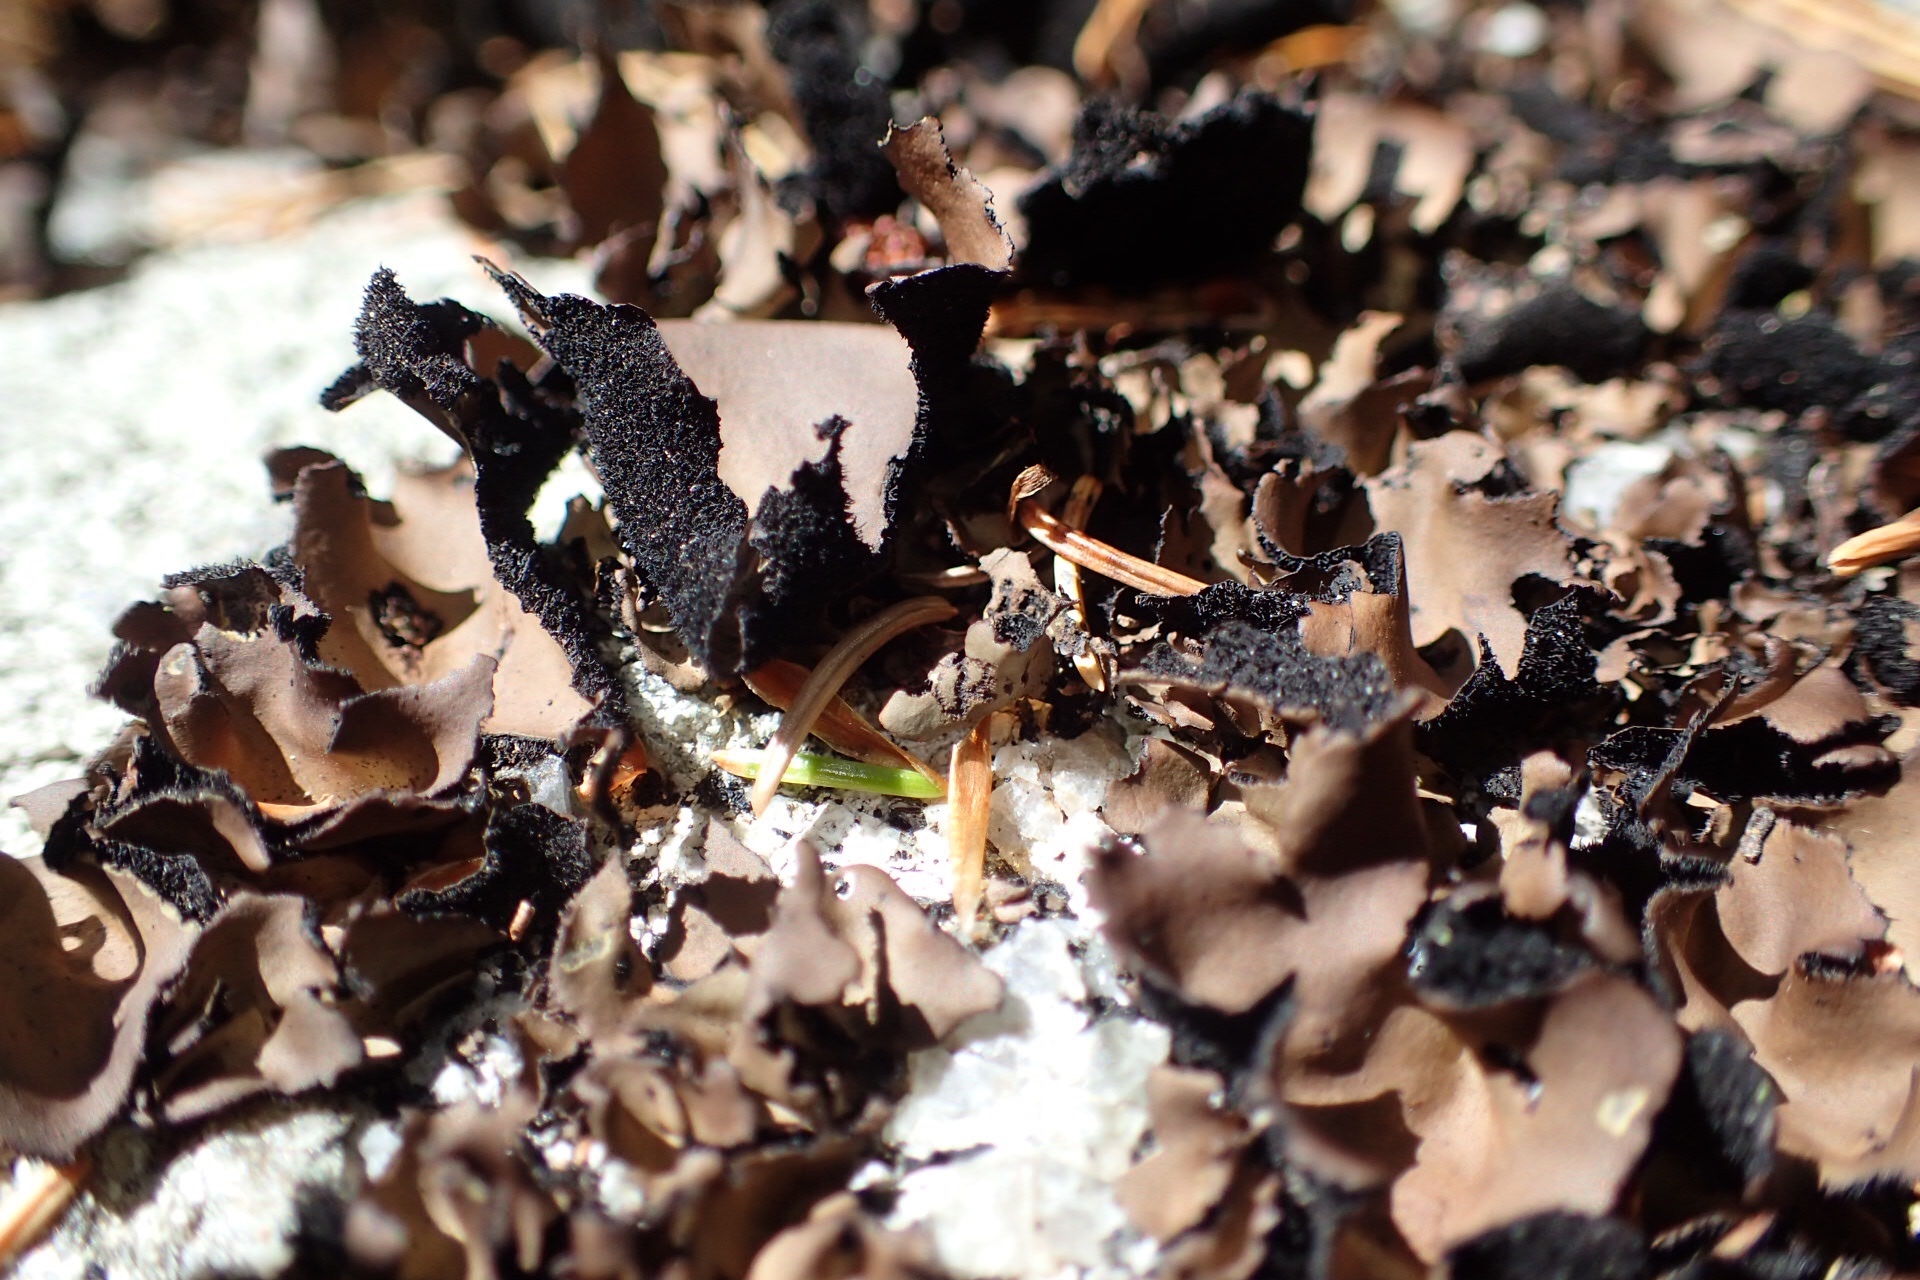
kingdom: Fungi
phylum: Ascomycota
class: Lecanoromycetes
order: Umbilicariales
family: Umbilicariaceae
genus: Umbilicaria
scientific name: Umbilicaria mammulata
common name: Smooth rock tripe
